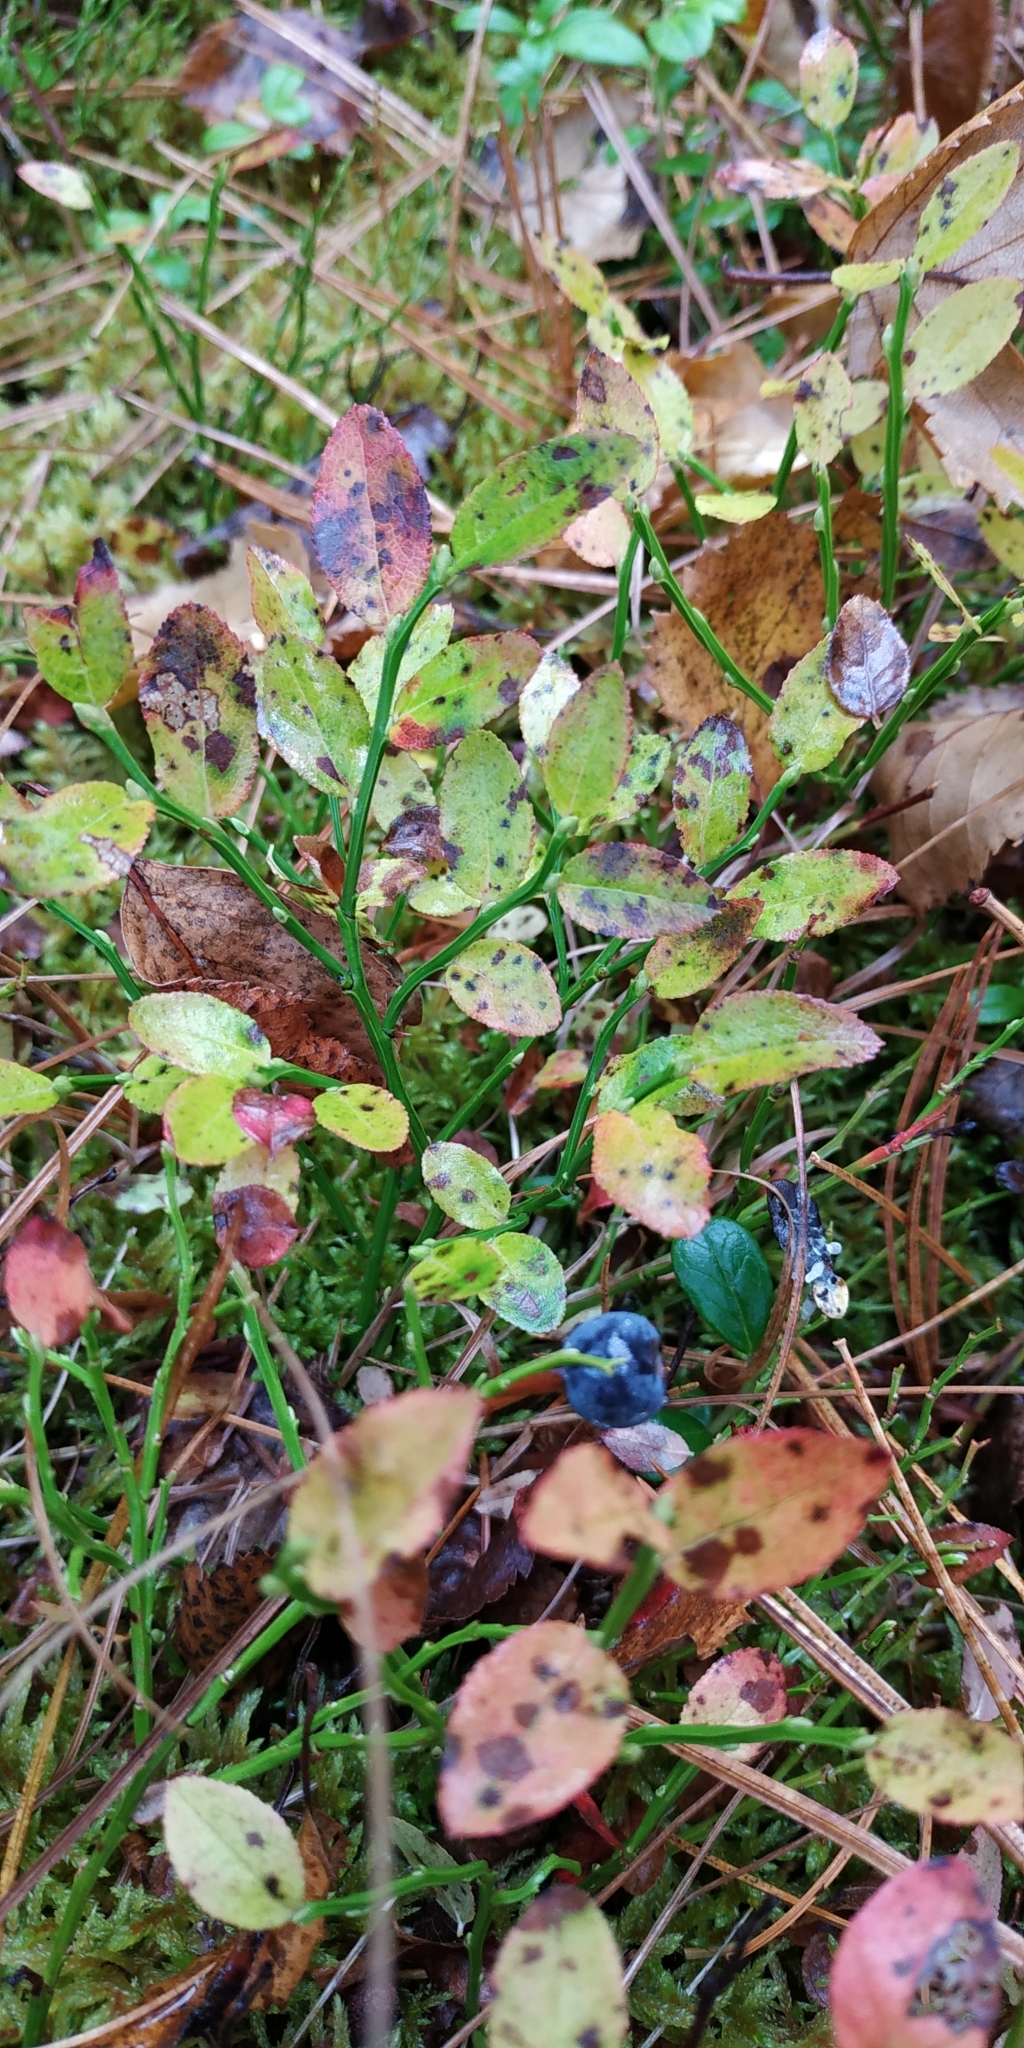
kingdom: Plantae
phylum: Tracheophyta
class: Magnoliopsida
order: Ericales
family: Ericaceae
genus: Vaccinium
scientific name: Vaccinium myrtillus
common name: Bilberry
